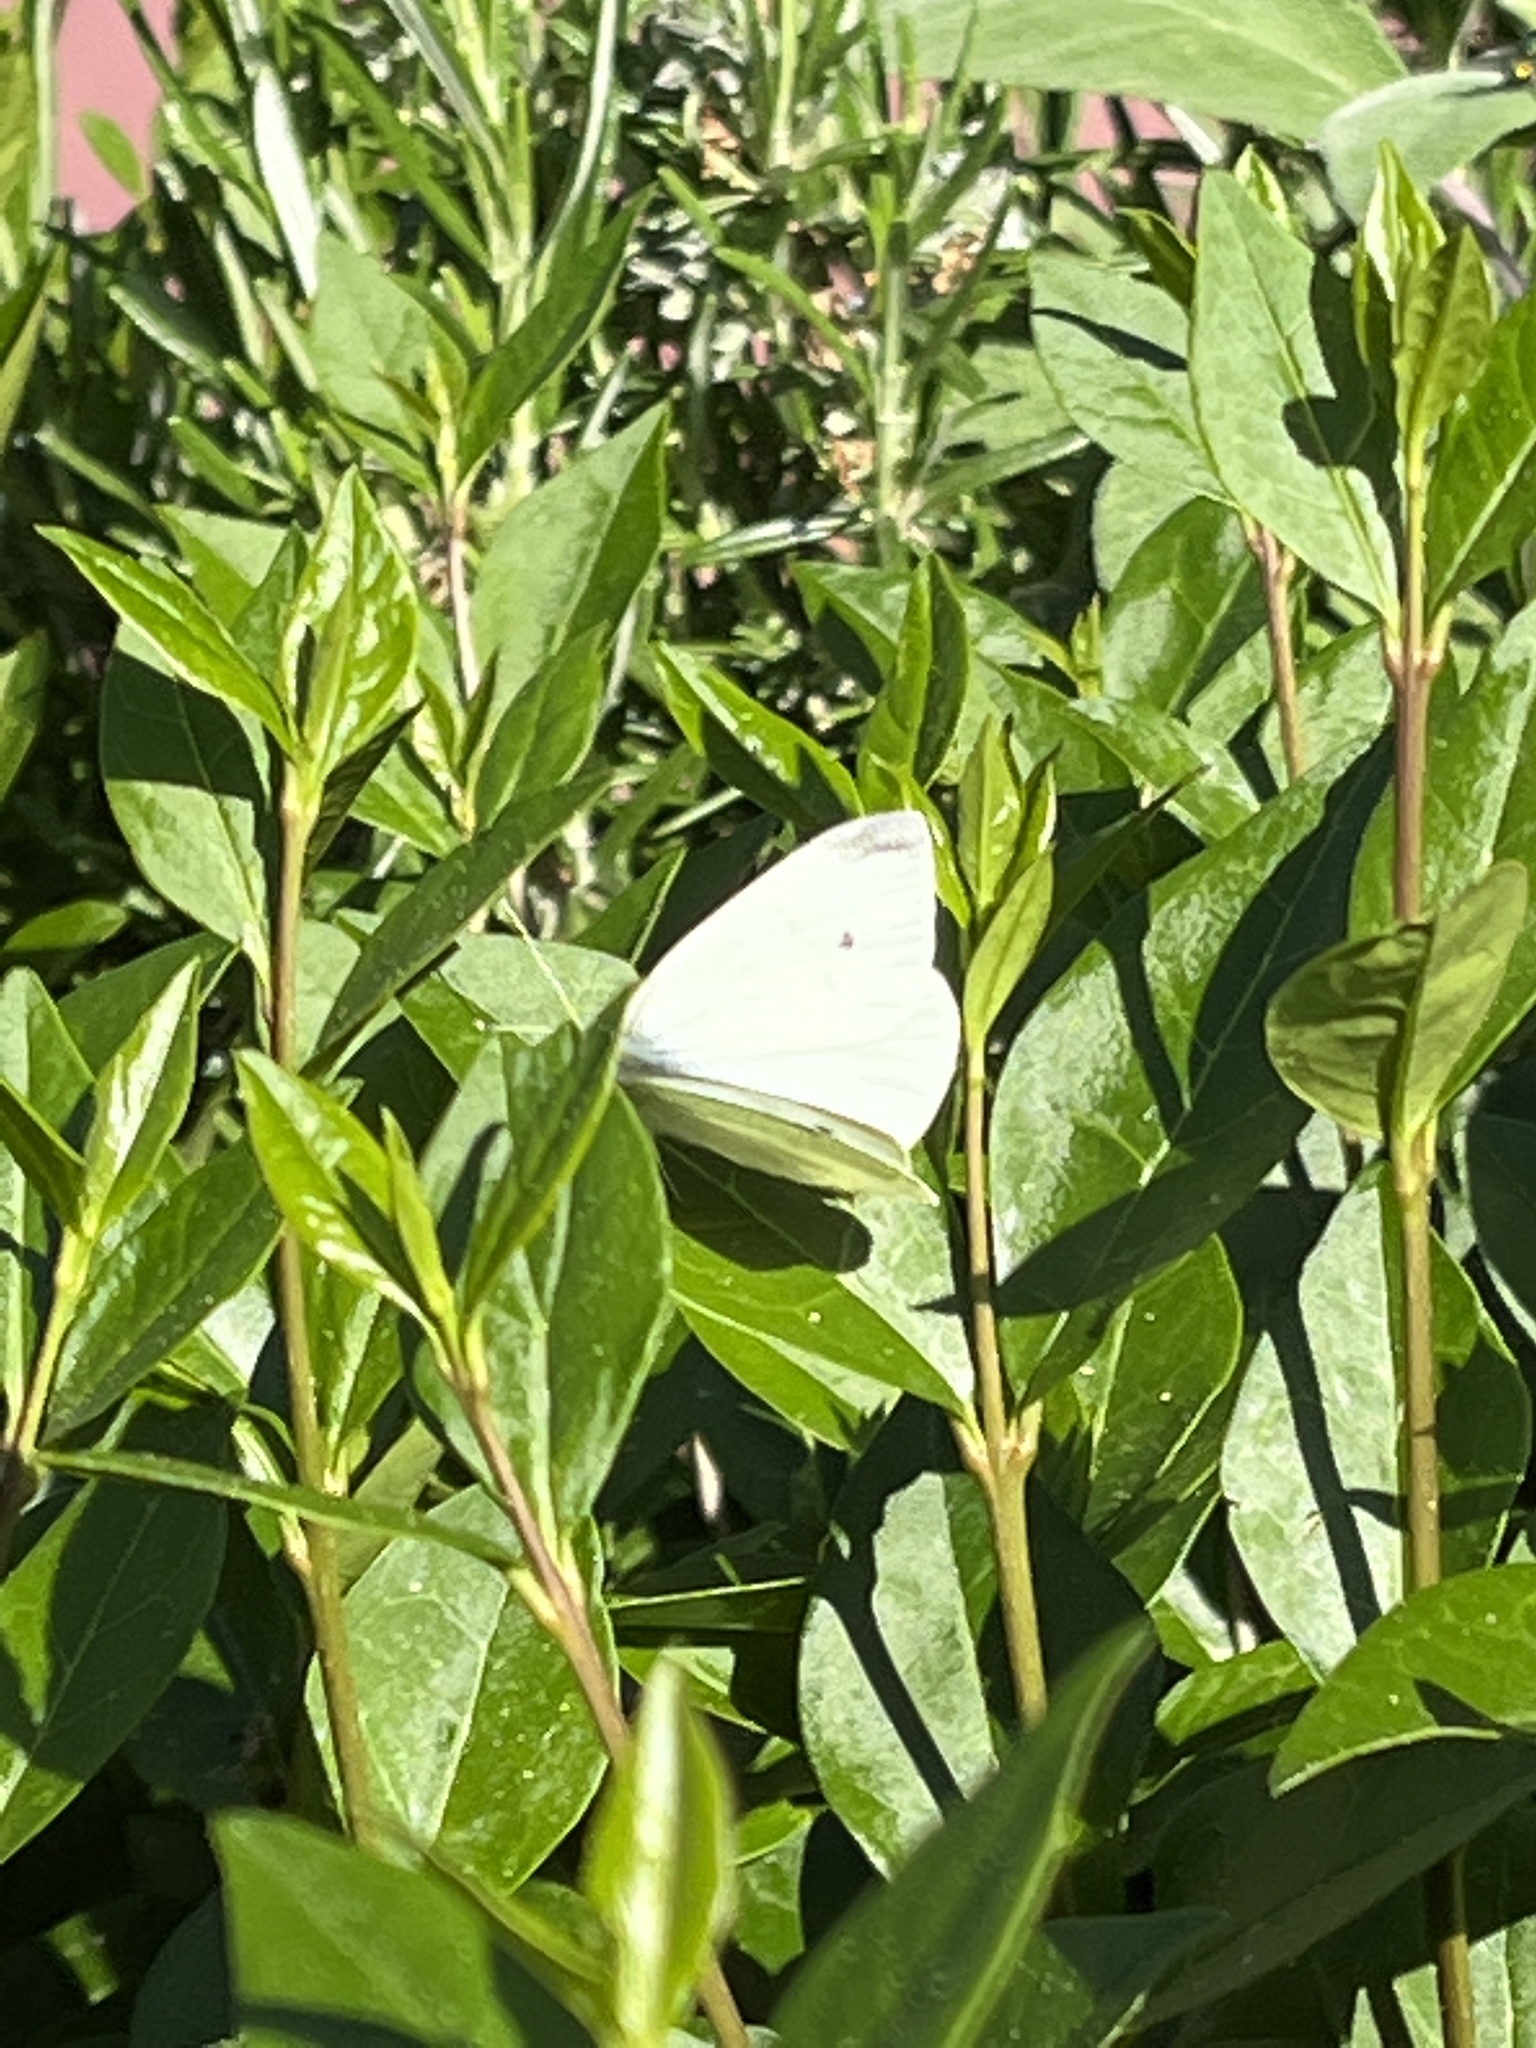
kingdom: Animalia
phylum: Arthropoda
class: Insecta
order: Lepidoptera
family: Pieridae
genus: Pieris
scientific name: Pieris rapae
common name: Small white
